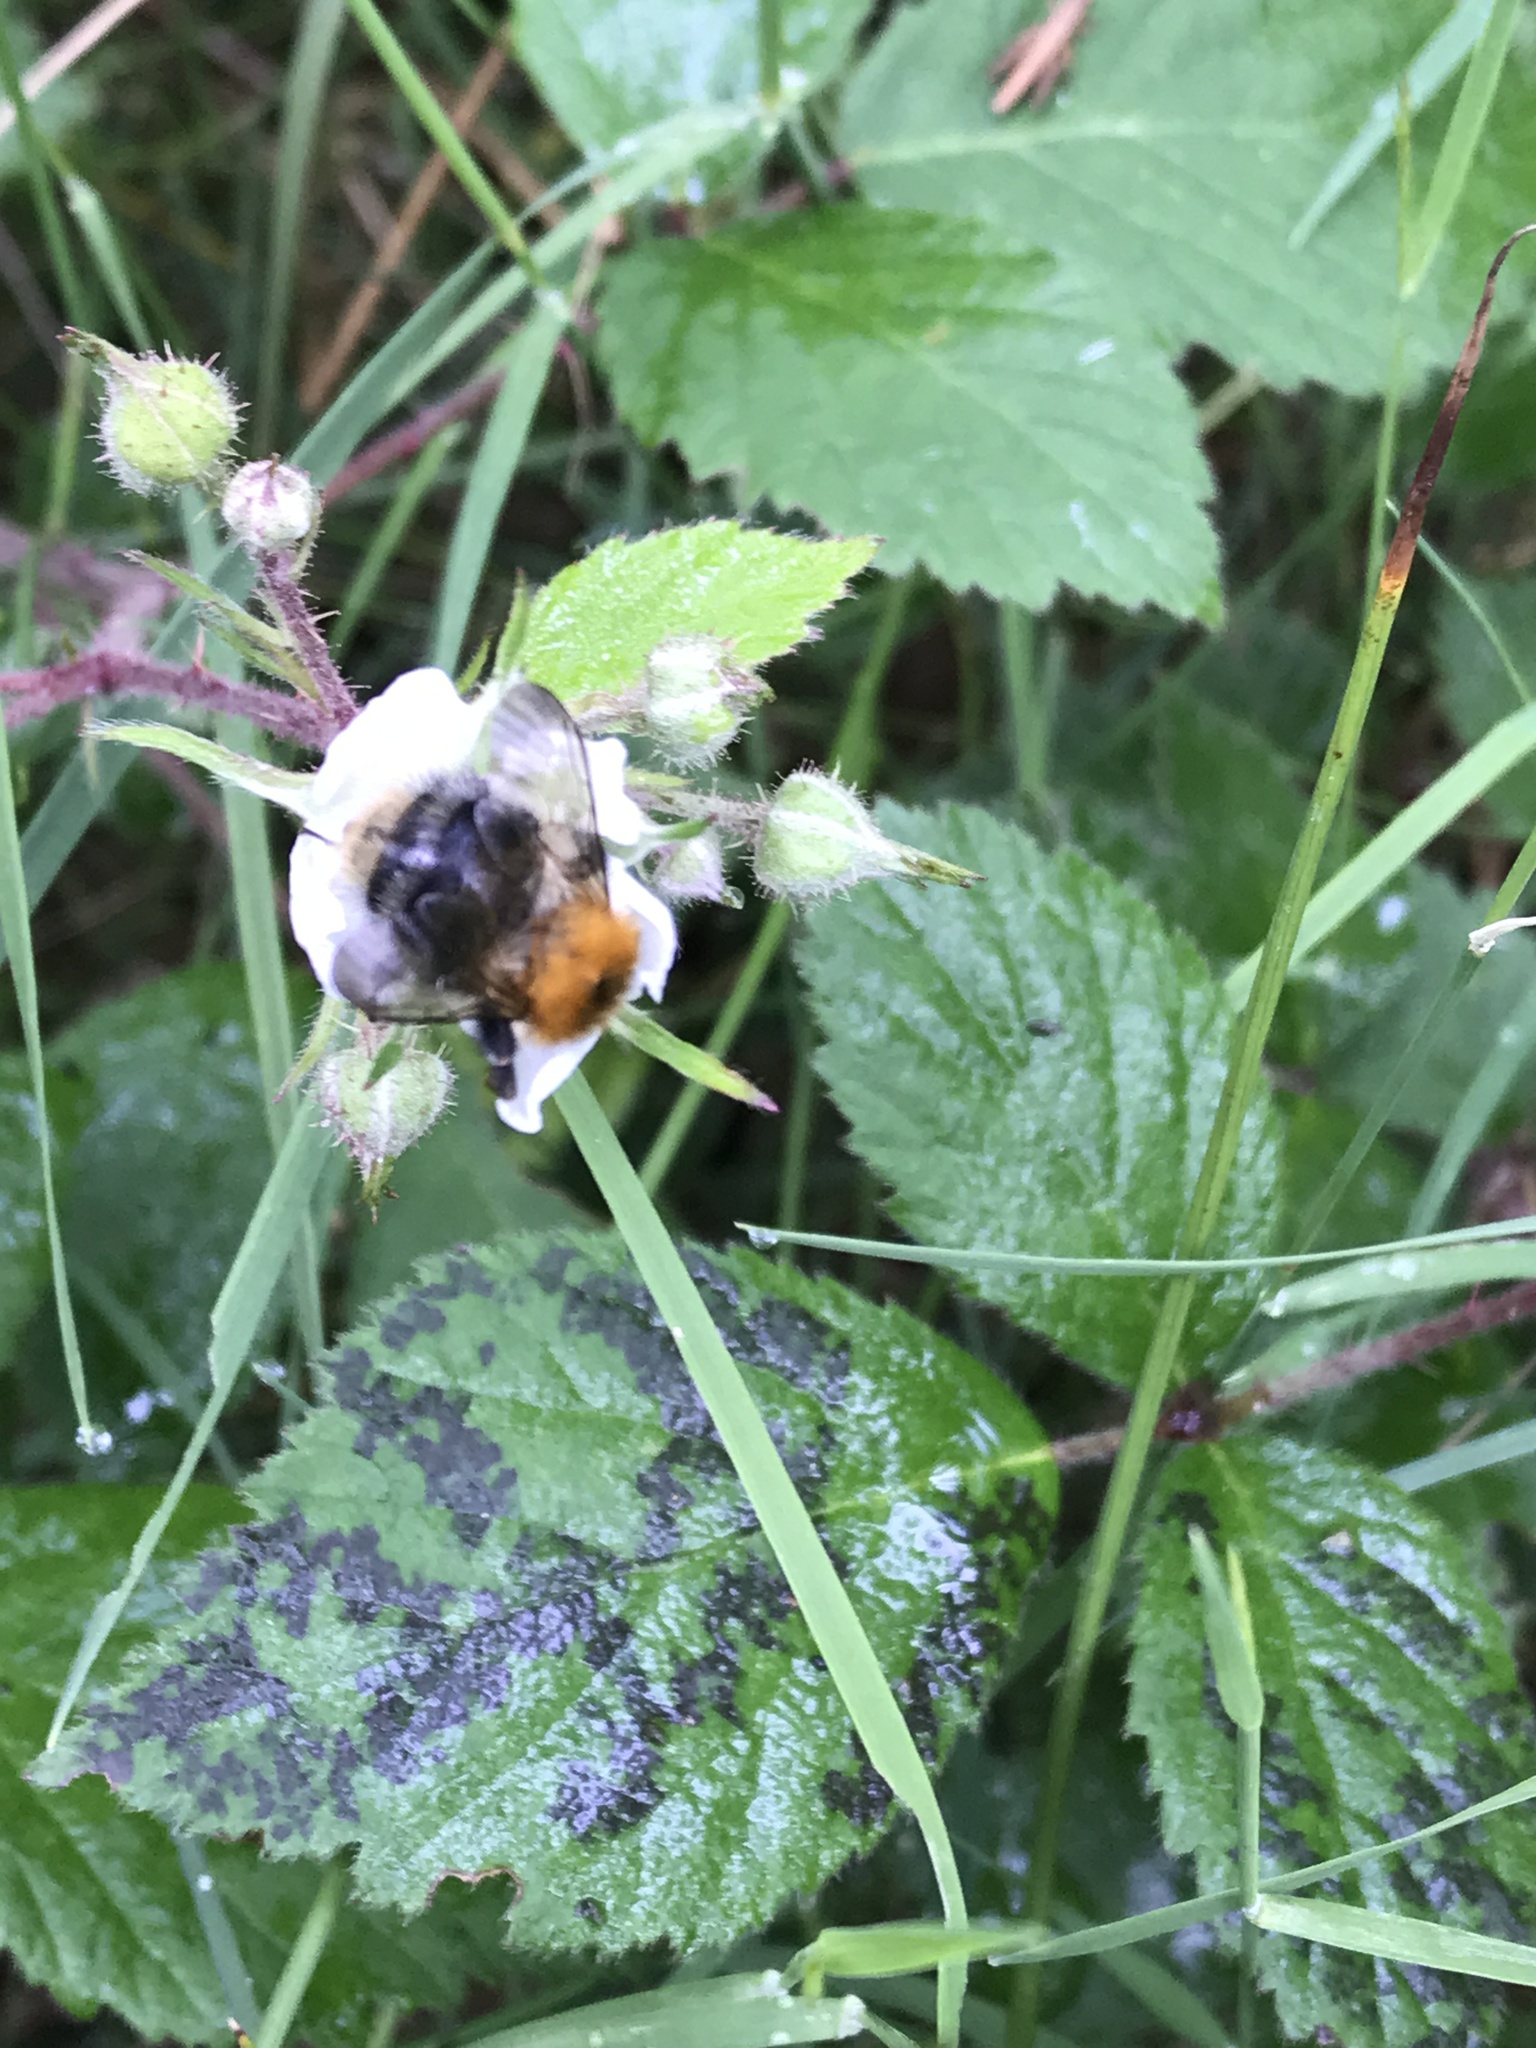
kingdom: Animalia
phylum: Arthropoda
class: Insecta
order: Hymenoptera
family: Apidae
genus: Bombus
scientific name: Bombus pascuorum
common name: Common carder bee
